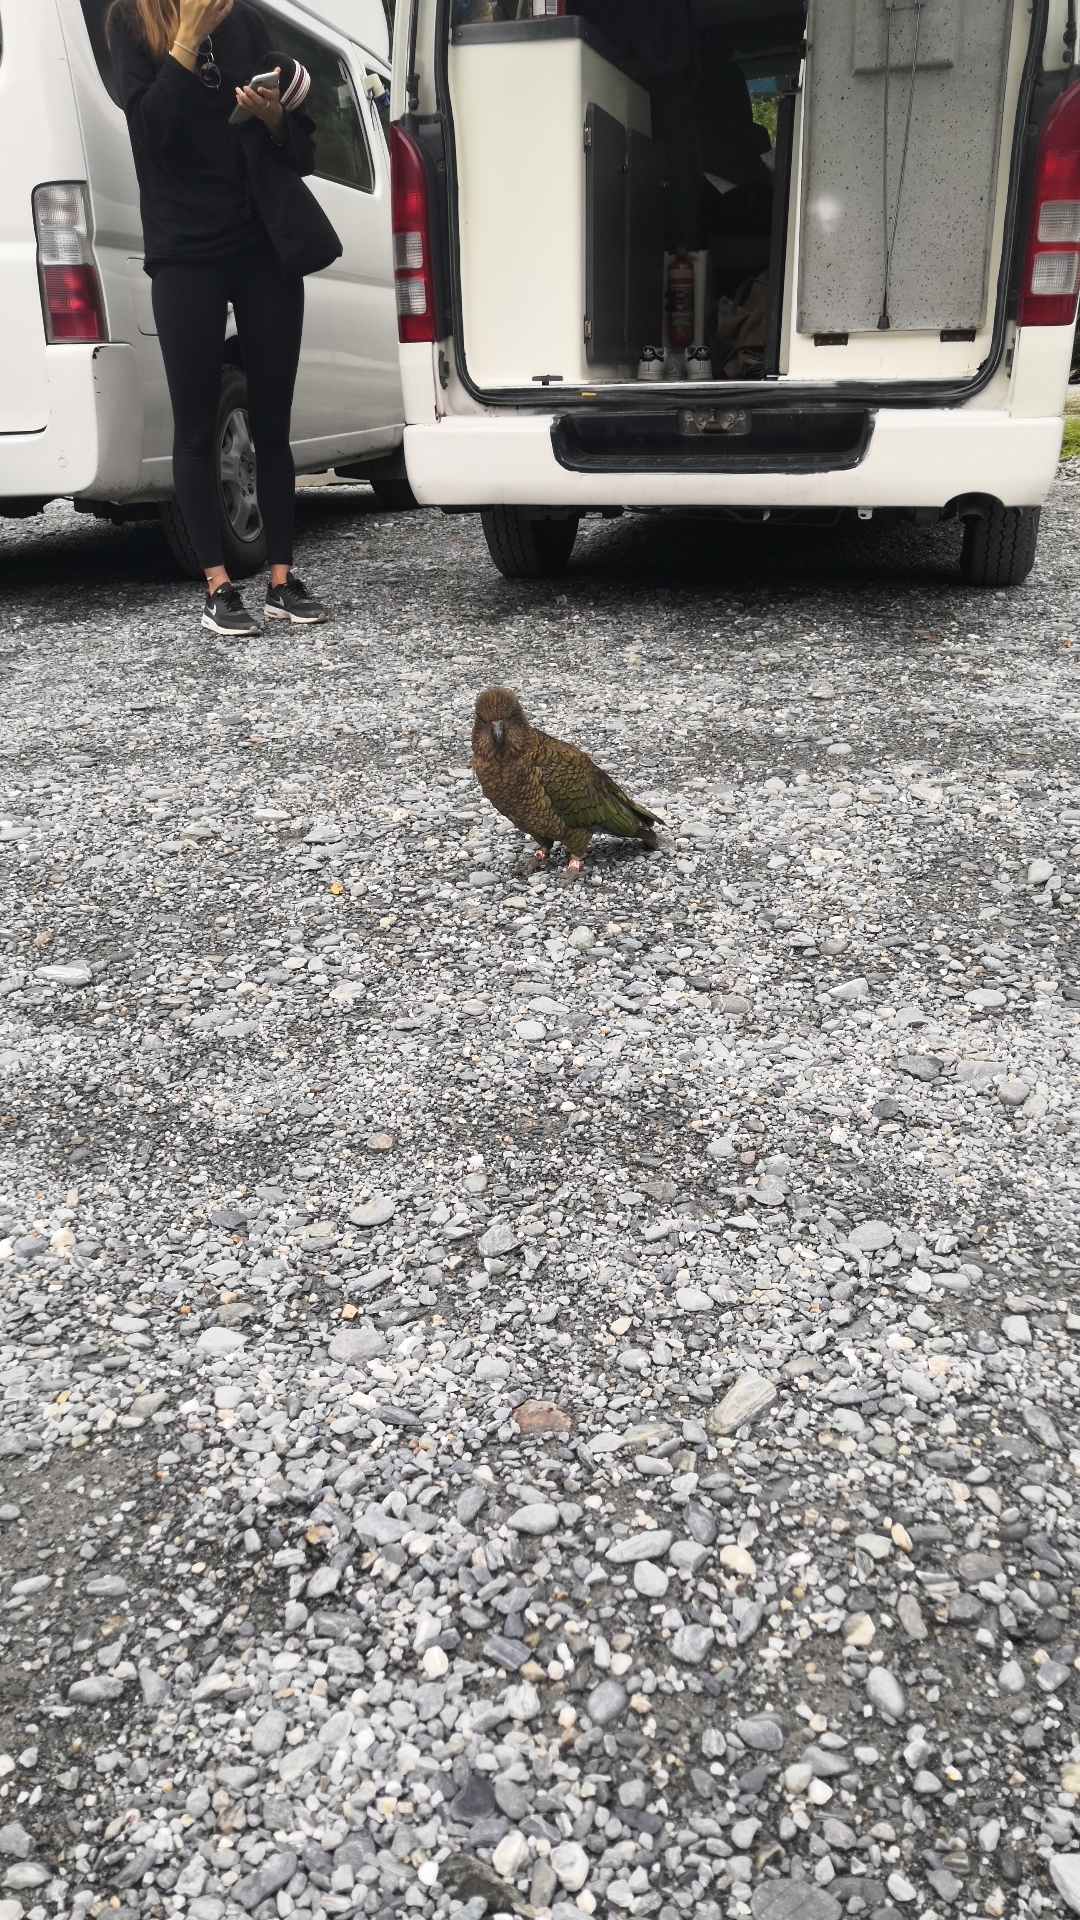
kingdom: Animalia
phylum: Chordata
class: Aves
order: Psittaciformes
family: Psittacidae
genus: Nestor
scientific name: Nestor notabilis
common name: Kea
